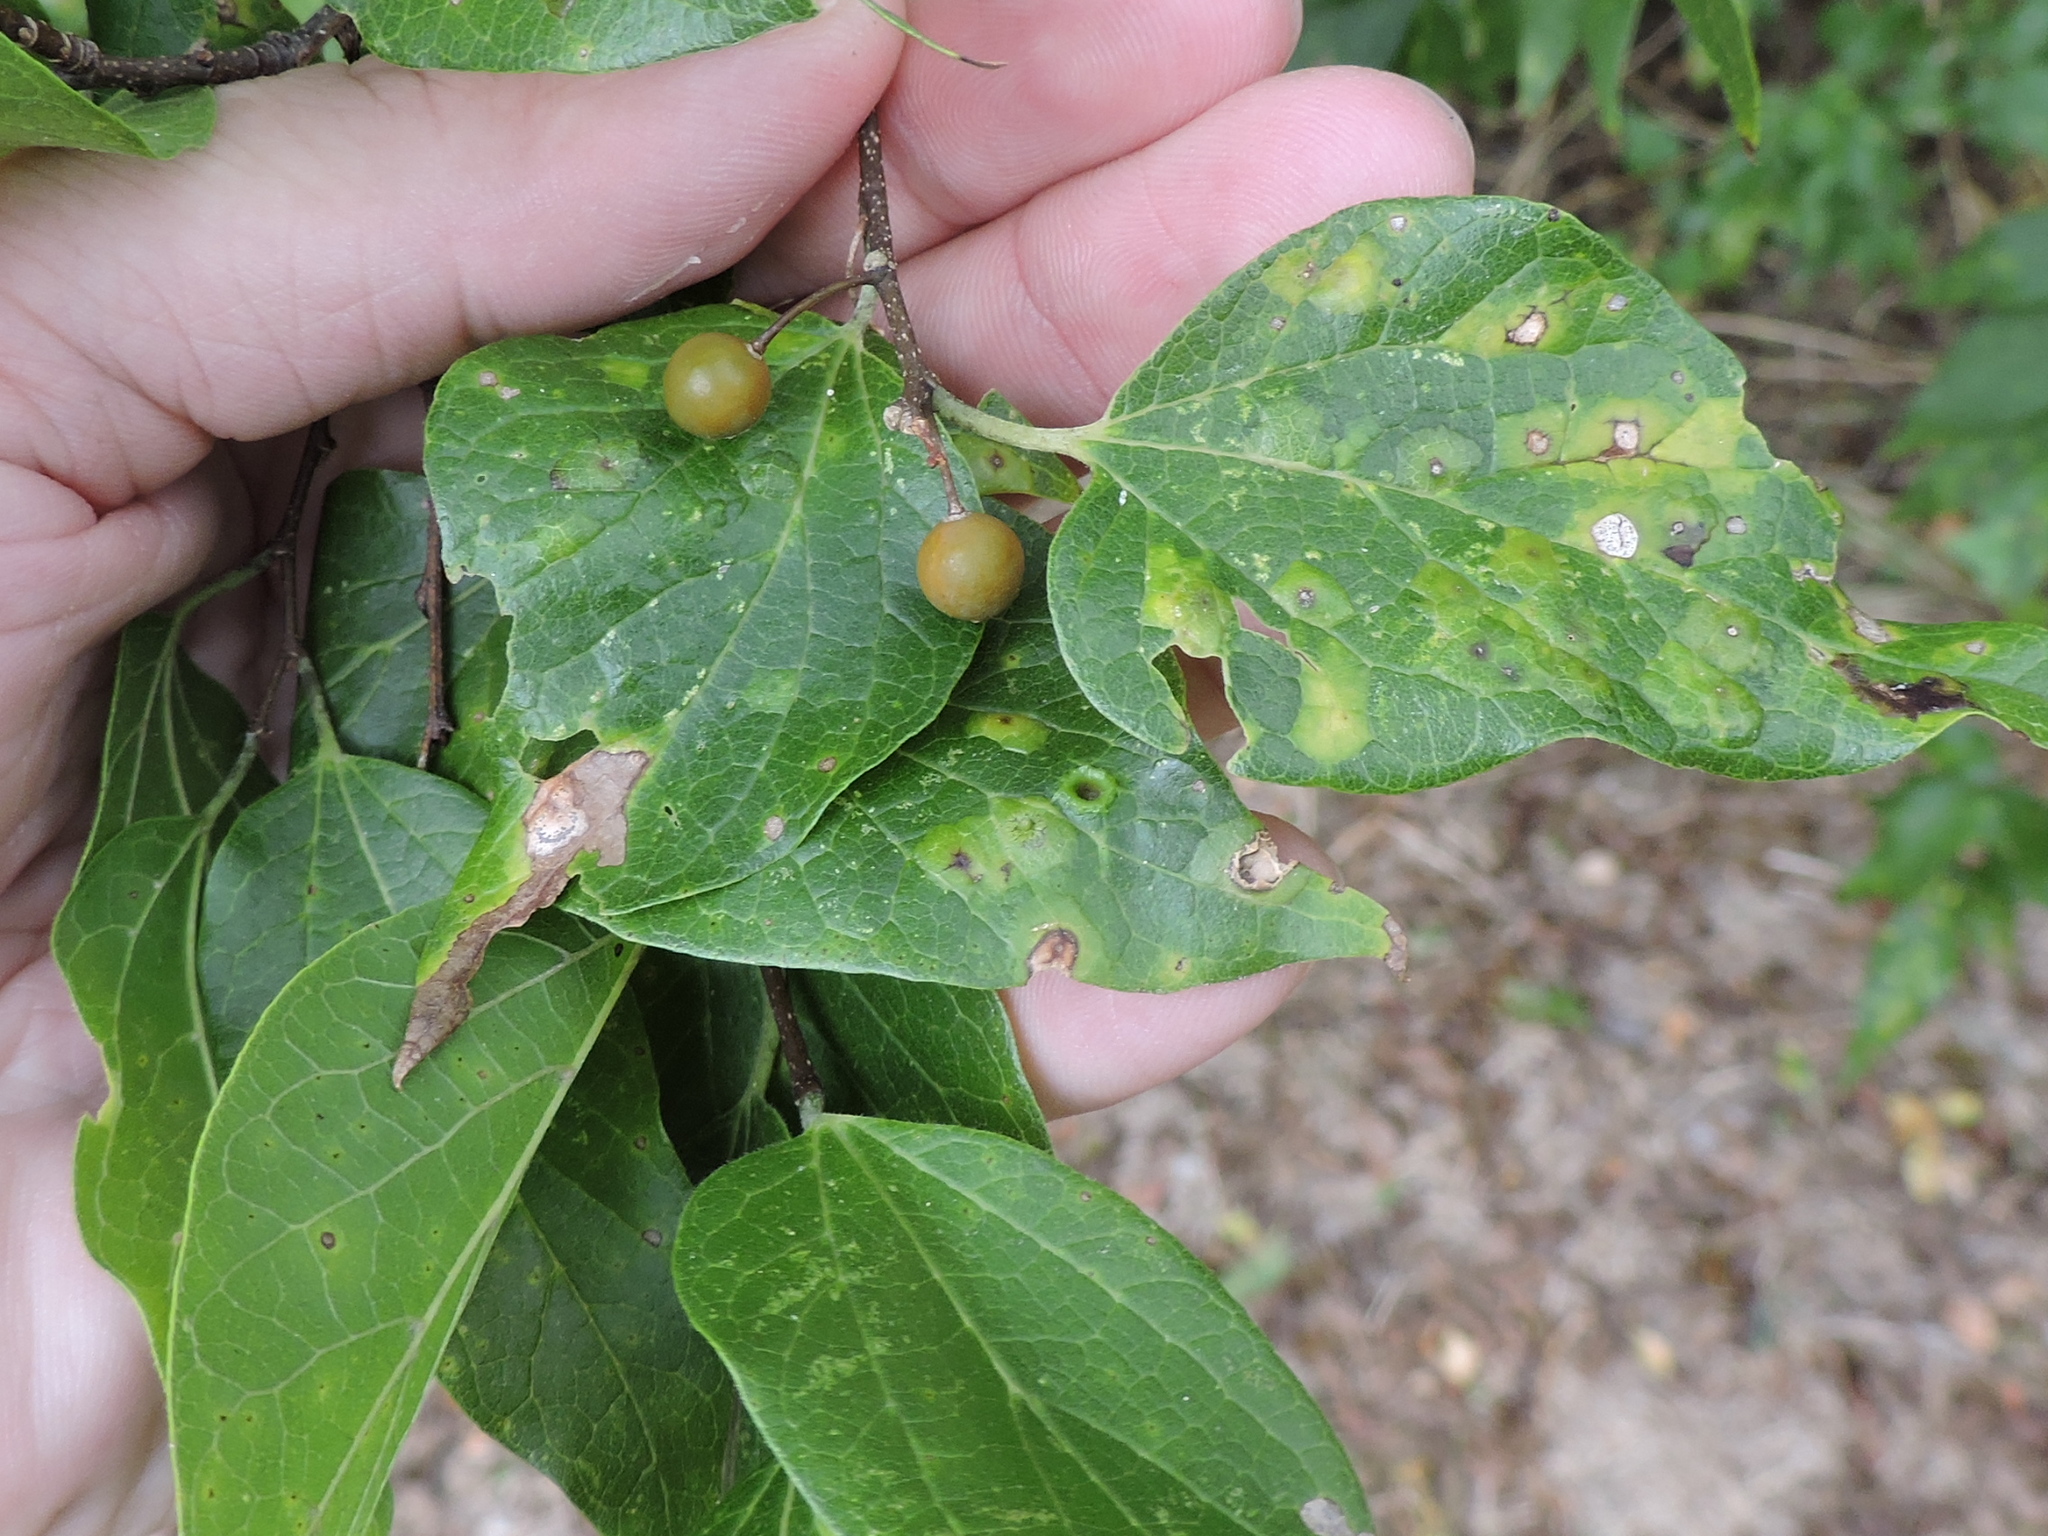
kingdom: Plantae
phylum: Tracheophyta
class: Magnoliopsida
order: Rosales
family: Cannabaceae
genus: Celtis
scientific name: Celtis laevigata
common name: Sugarberry
